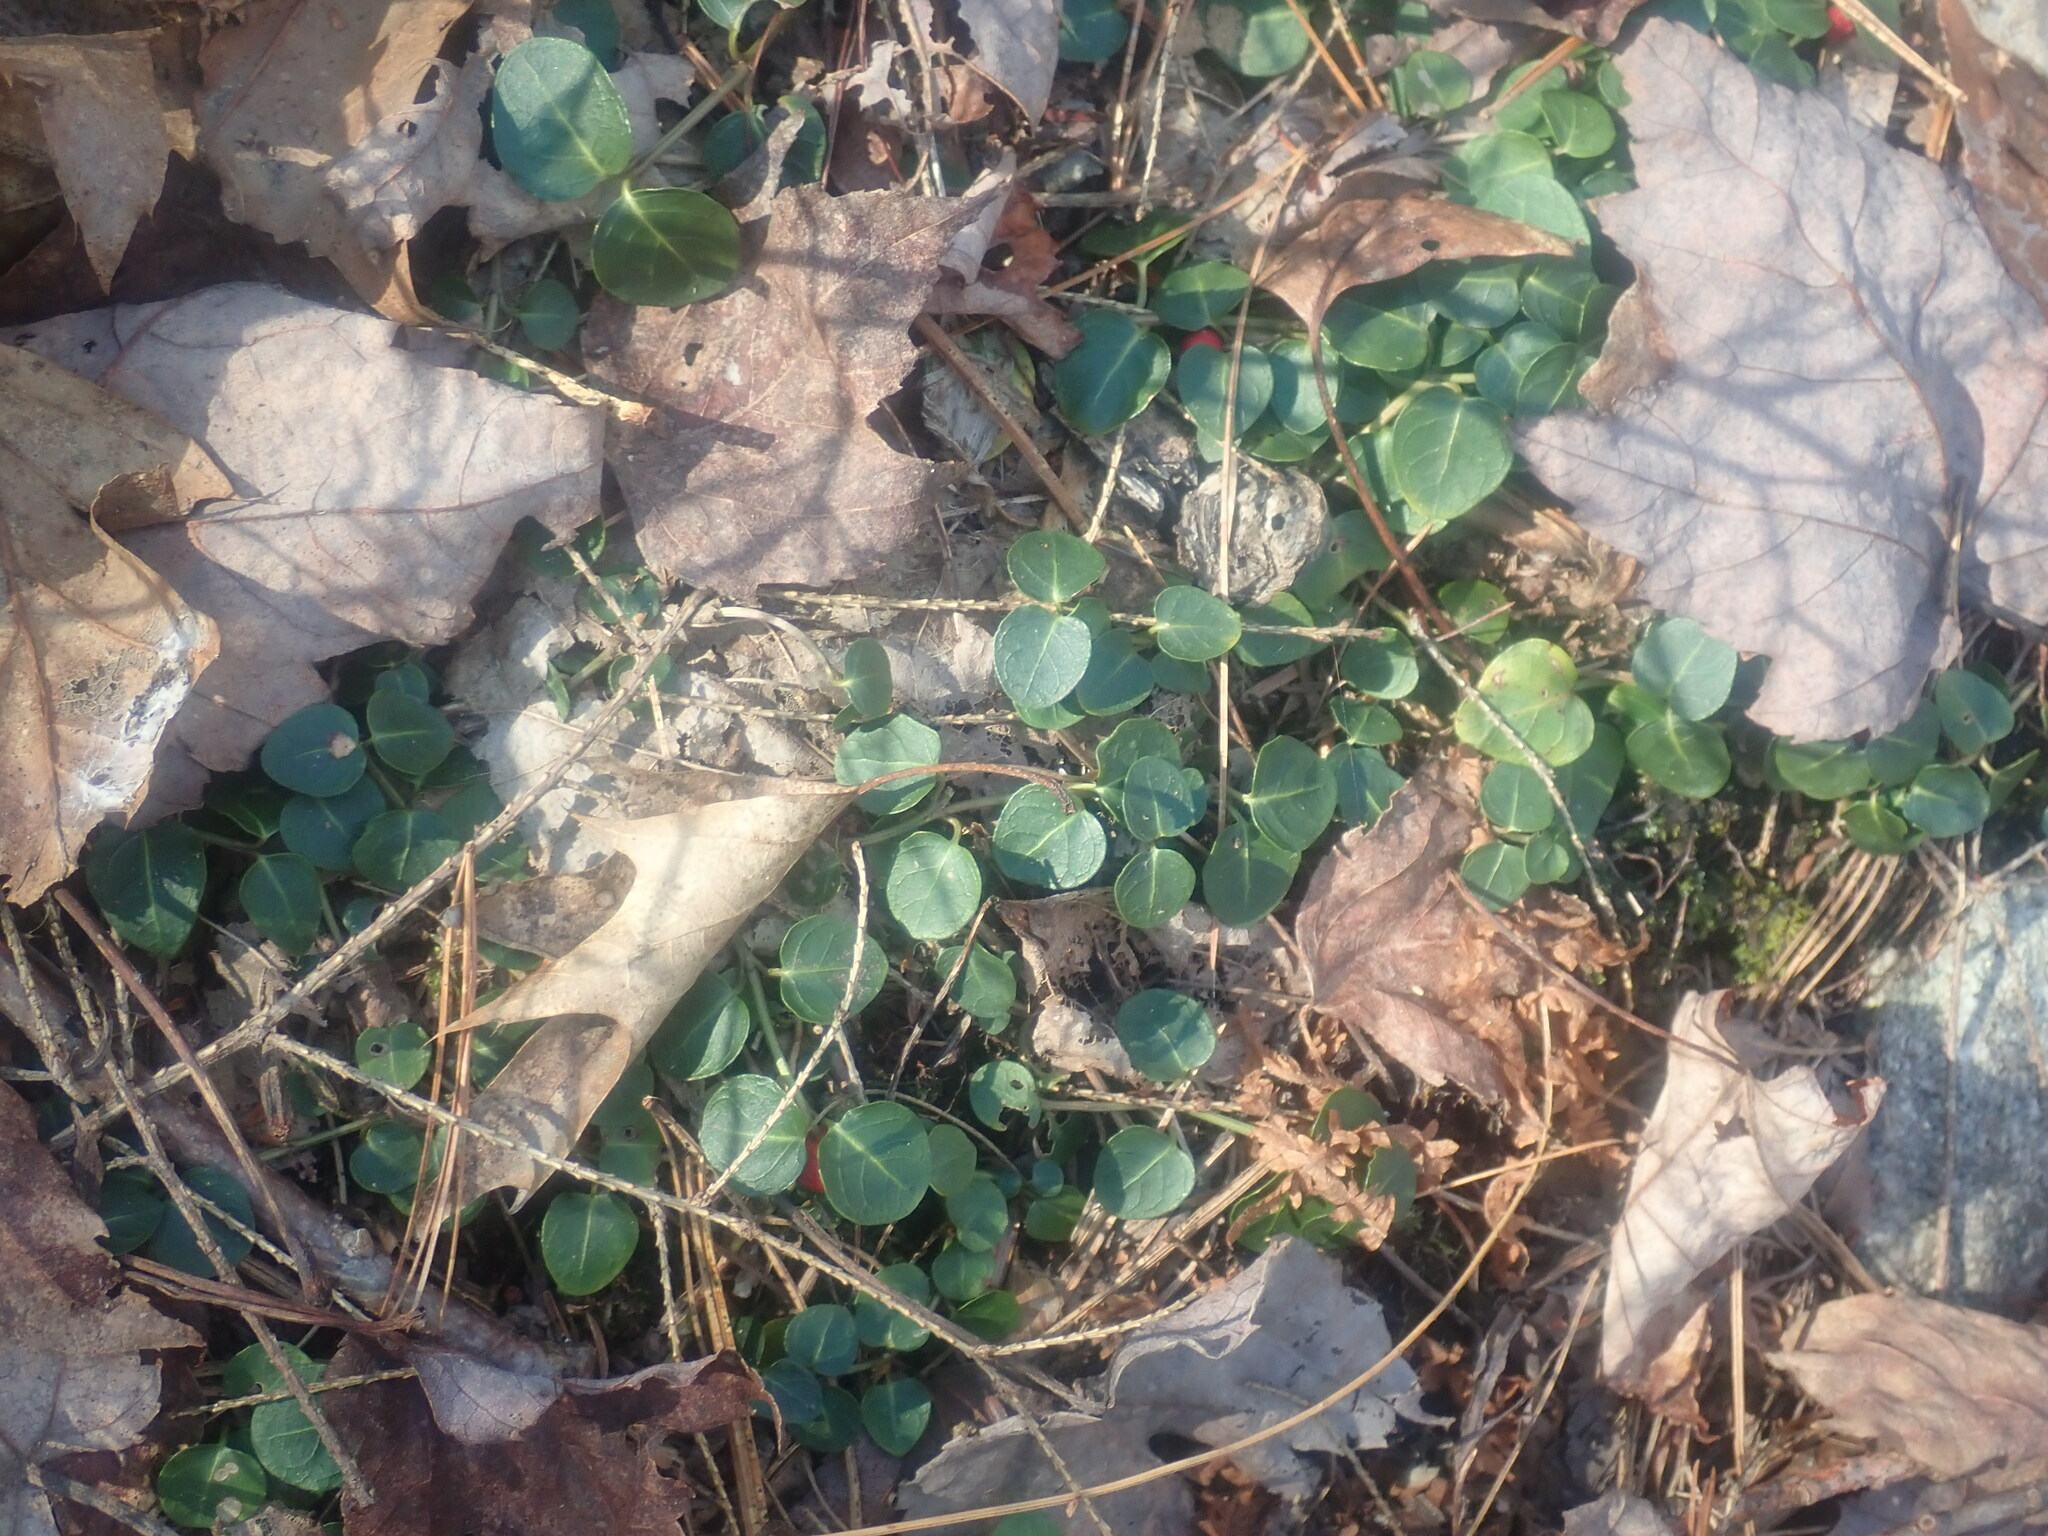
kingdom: Plantae
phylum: Tracheophyta
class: Magnoliopsida
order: Gentianales
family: Rubiaceae
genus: Mitchella
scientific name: Mitchella repens
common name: Partridge-berry
